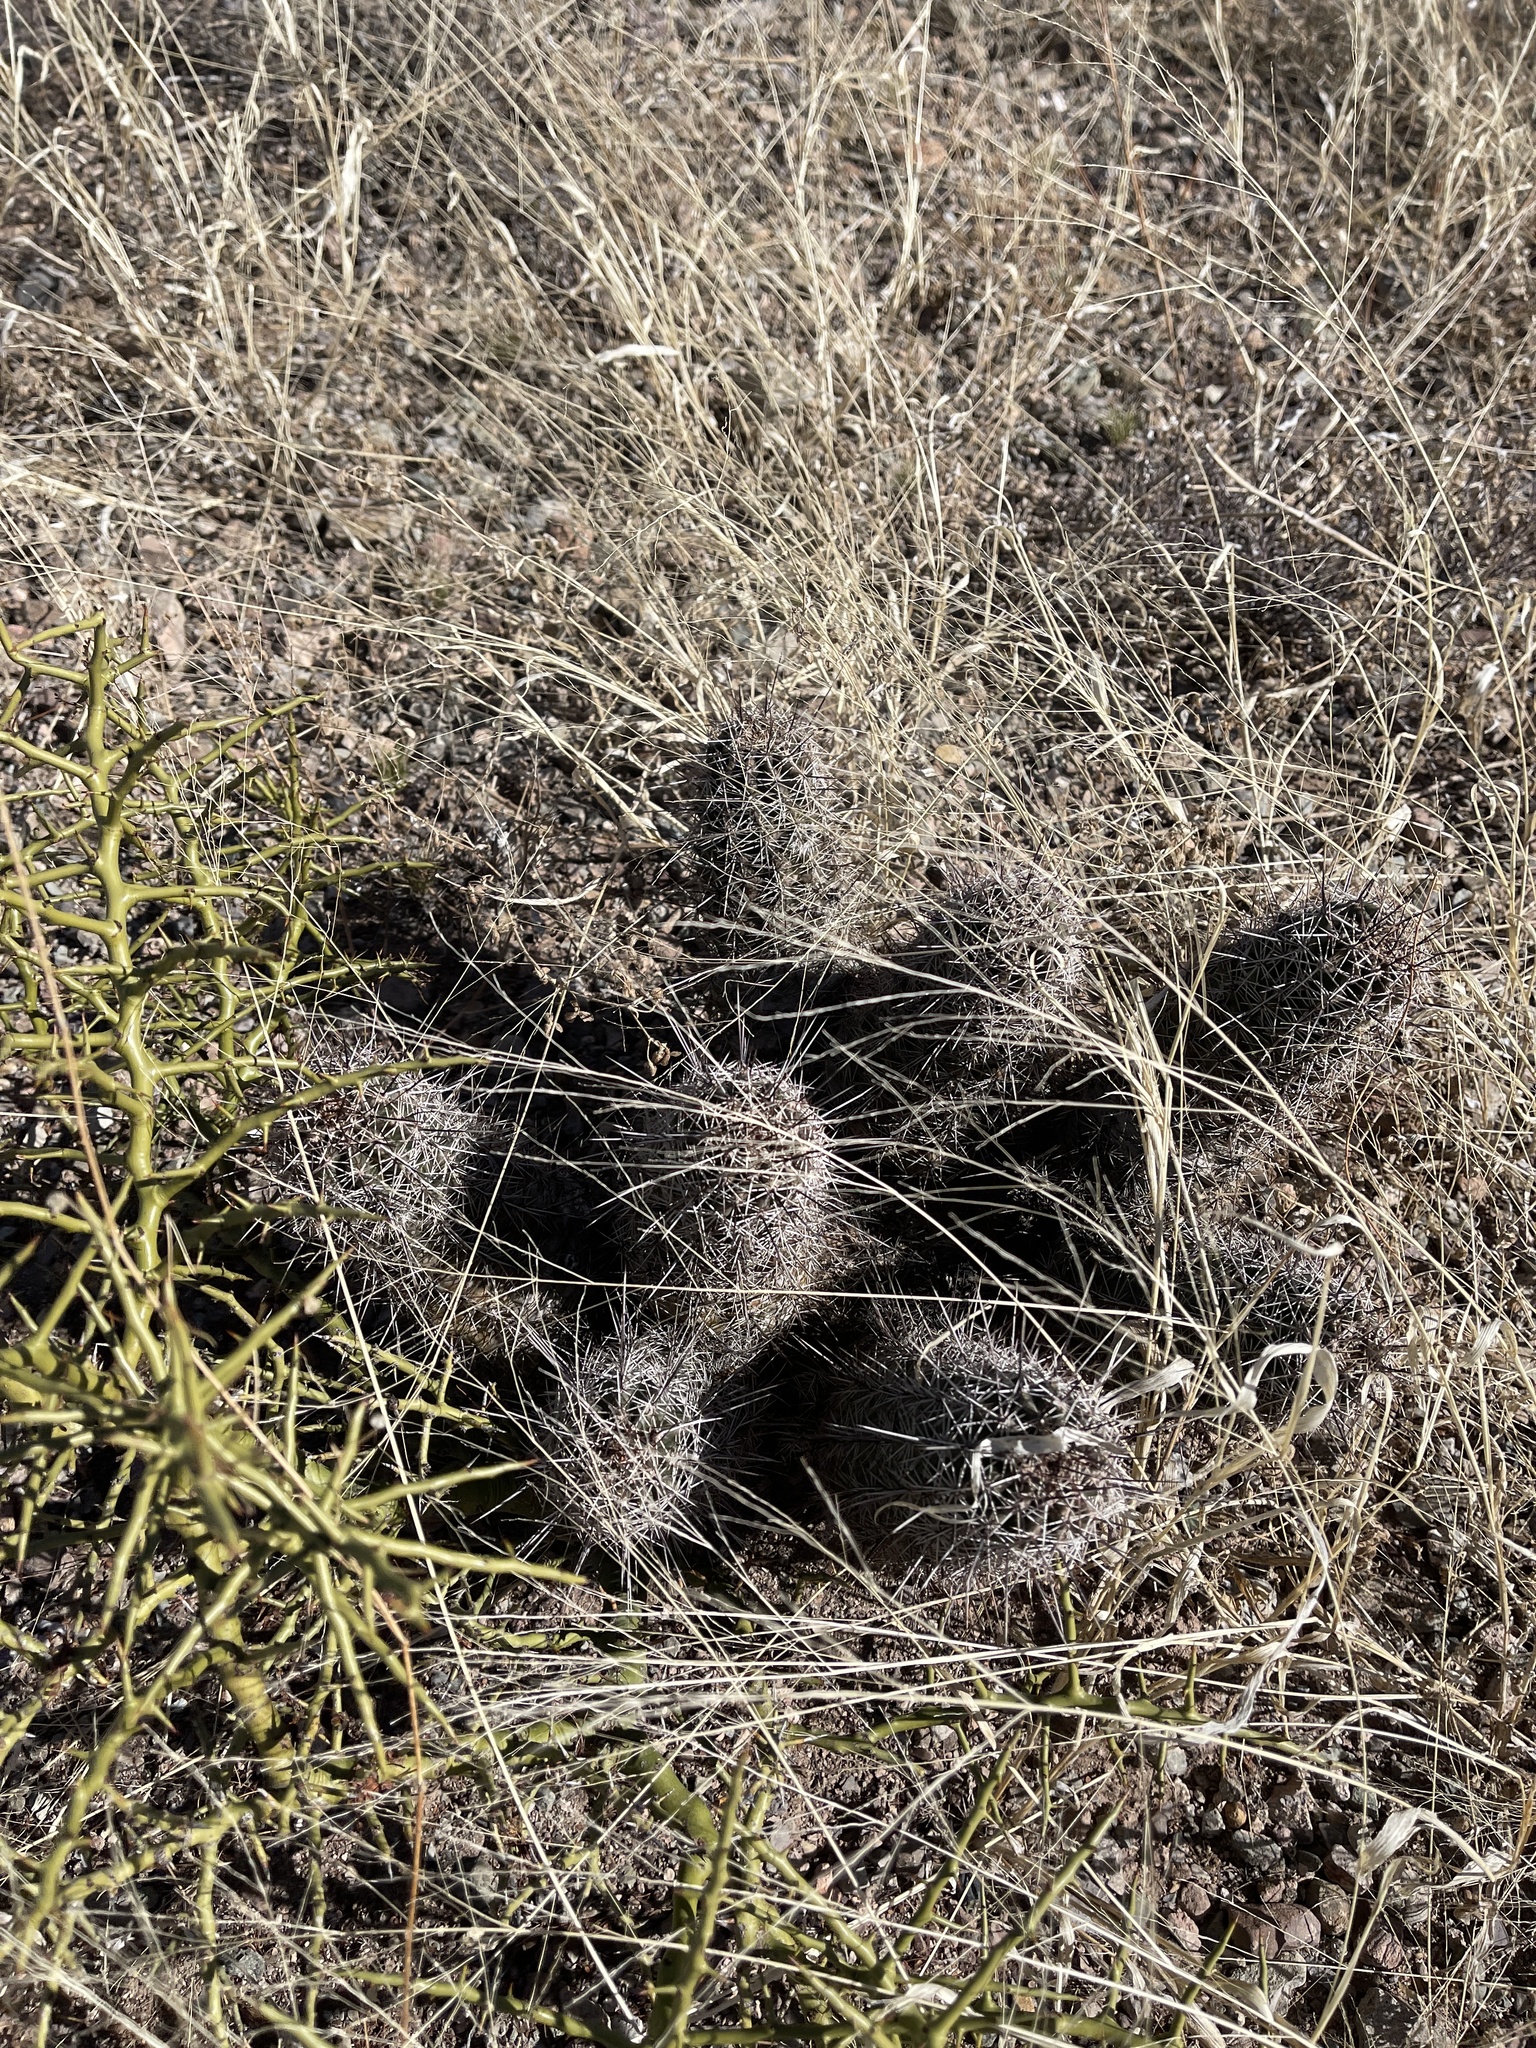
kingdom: Plantae
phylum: Tracheophyta
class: Magnoliopsida
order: Caryophyllales
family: Cactaceae
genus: Echinocereus
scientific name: Echinocereus fasciculatus
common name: Bundle hedgehog
